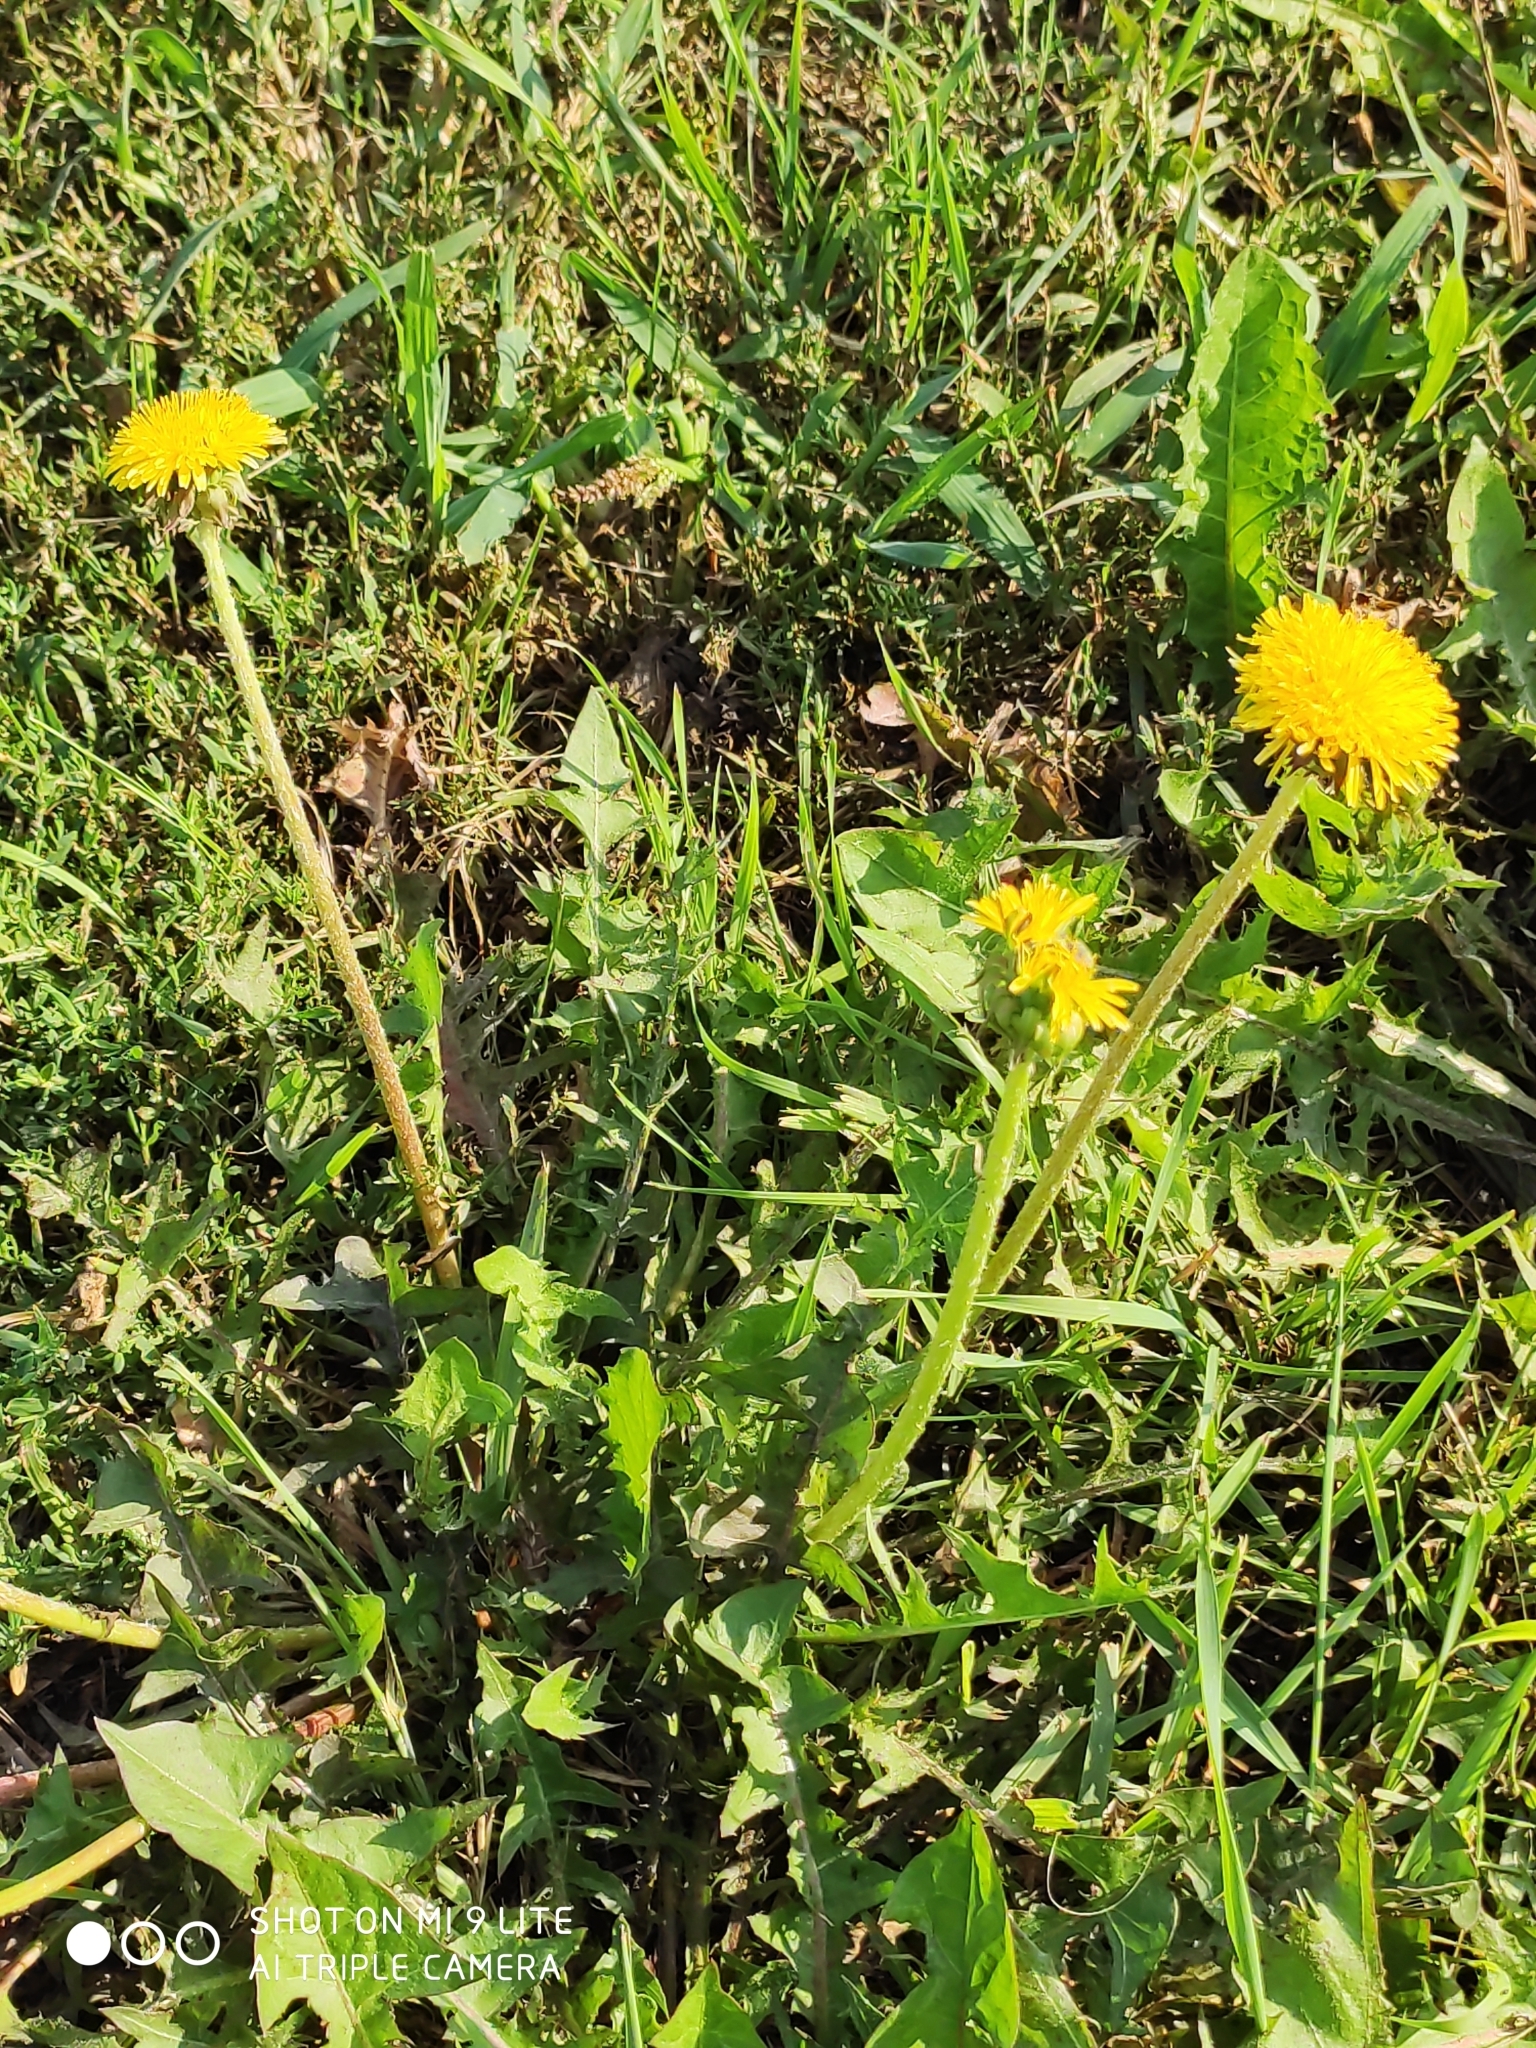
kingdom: Plantae
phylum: Tracheophyta
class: Magnoliopsida
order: Asterales
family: Asteraceae
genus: Taraxacum
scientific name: Taraxacum officinale
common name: Common dandelion
